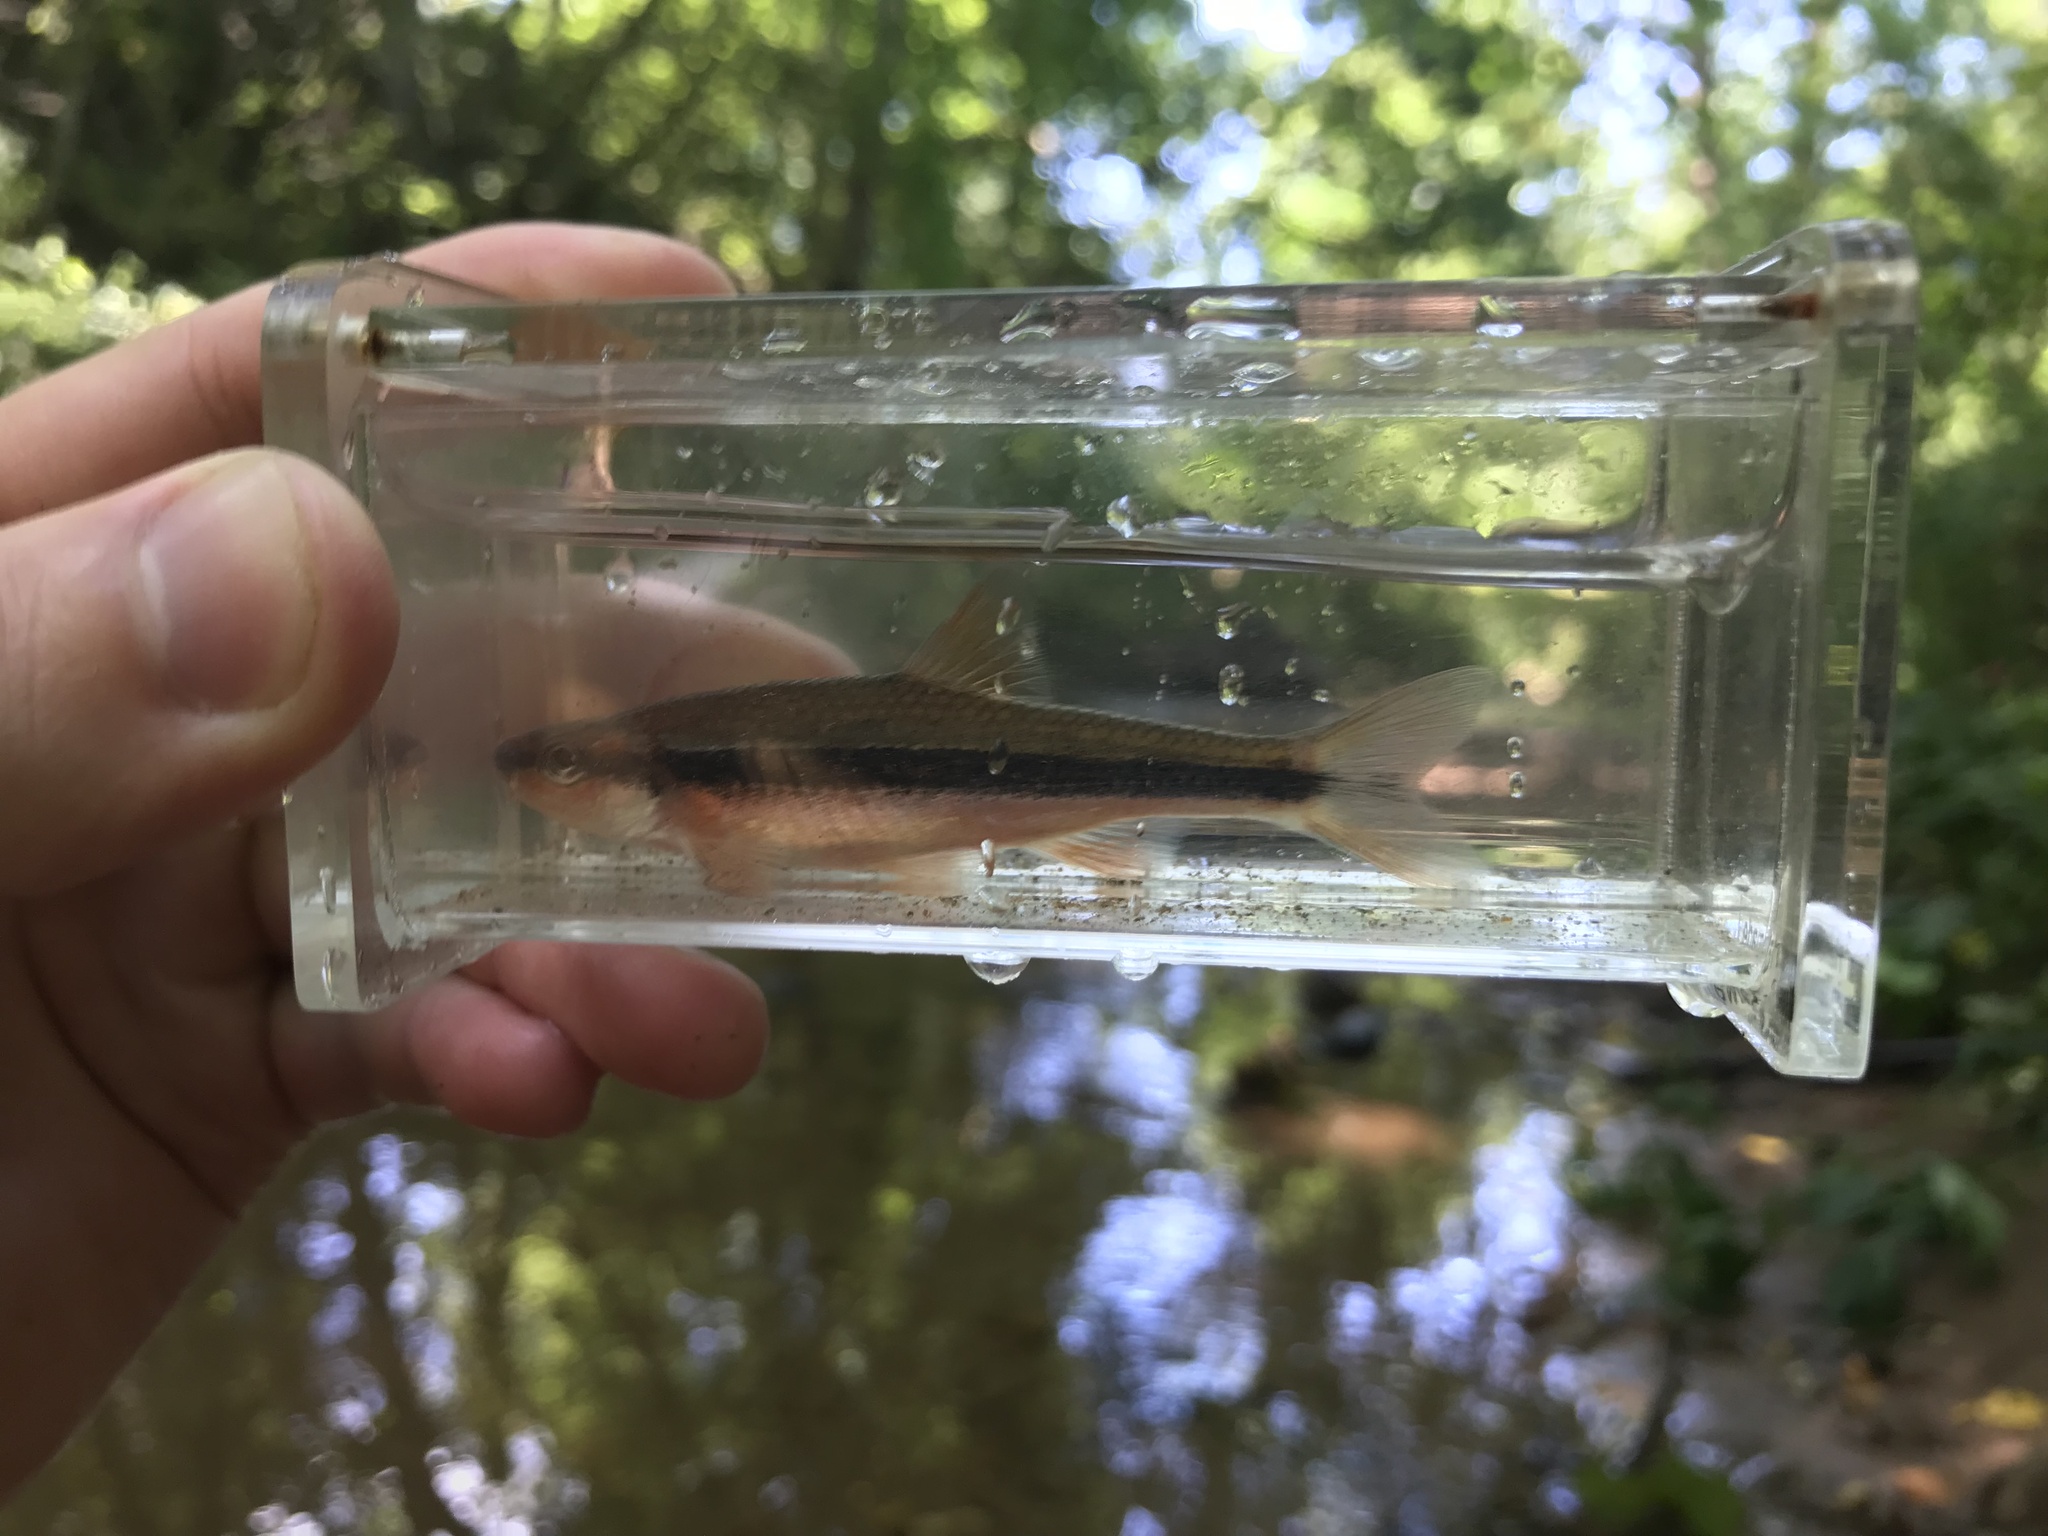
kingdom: Animalia
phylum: Chordata
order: Cypriniformes
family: Cyprinidae
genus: Notropis
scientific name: Notropis lutipinnis
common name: Yellowfin shiner
